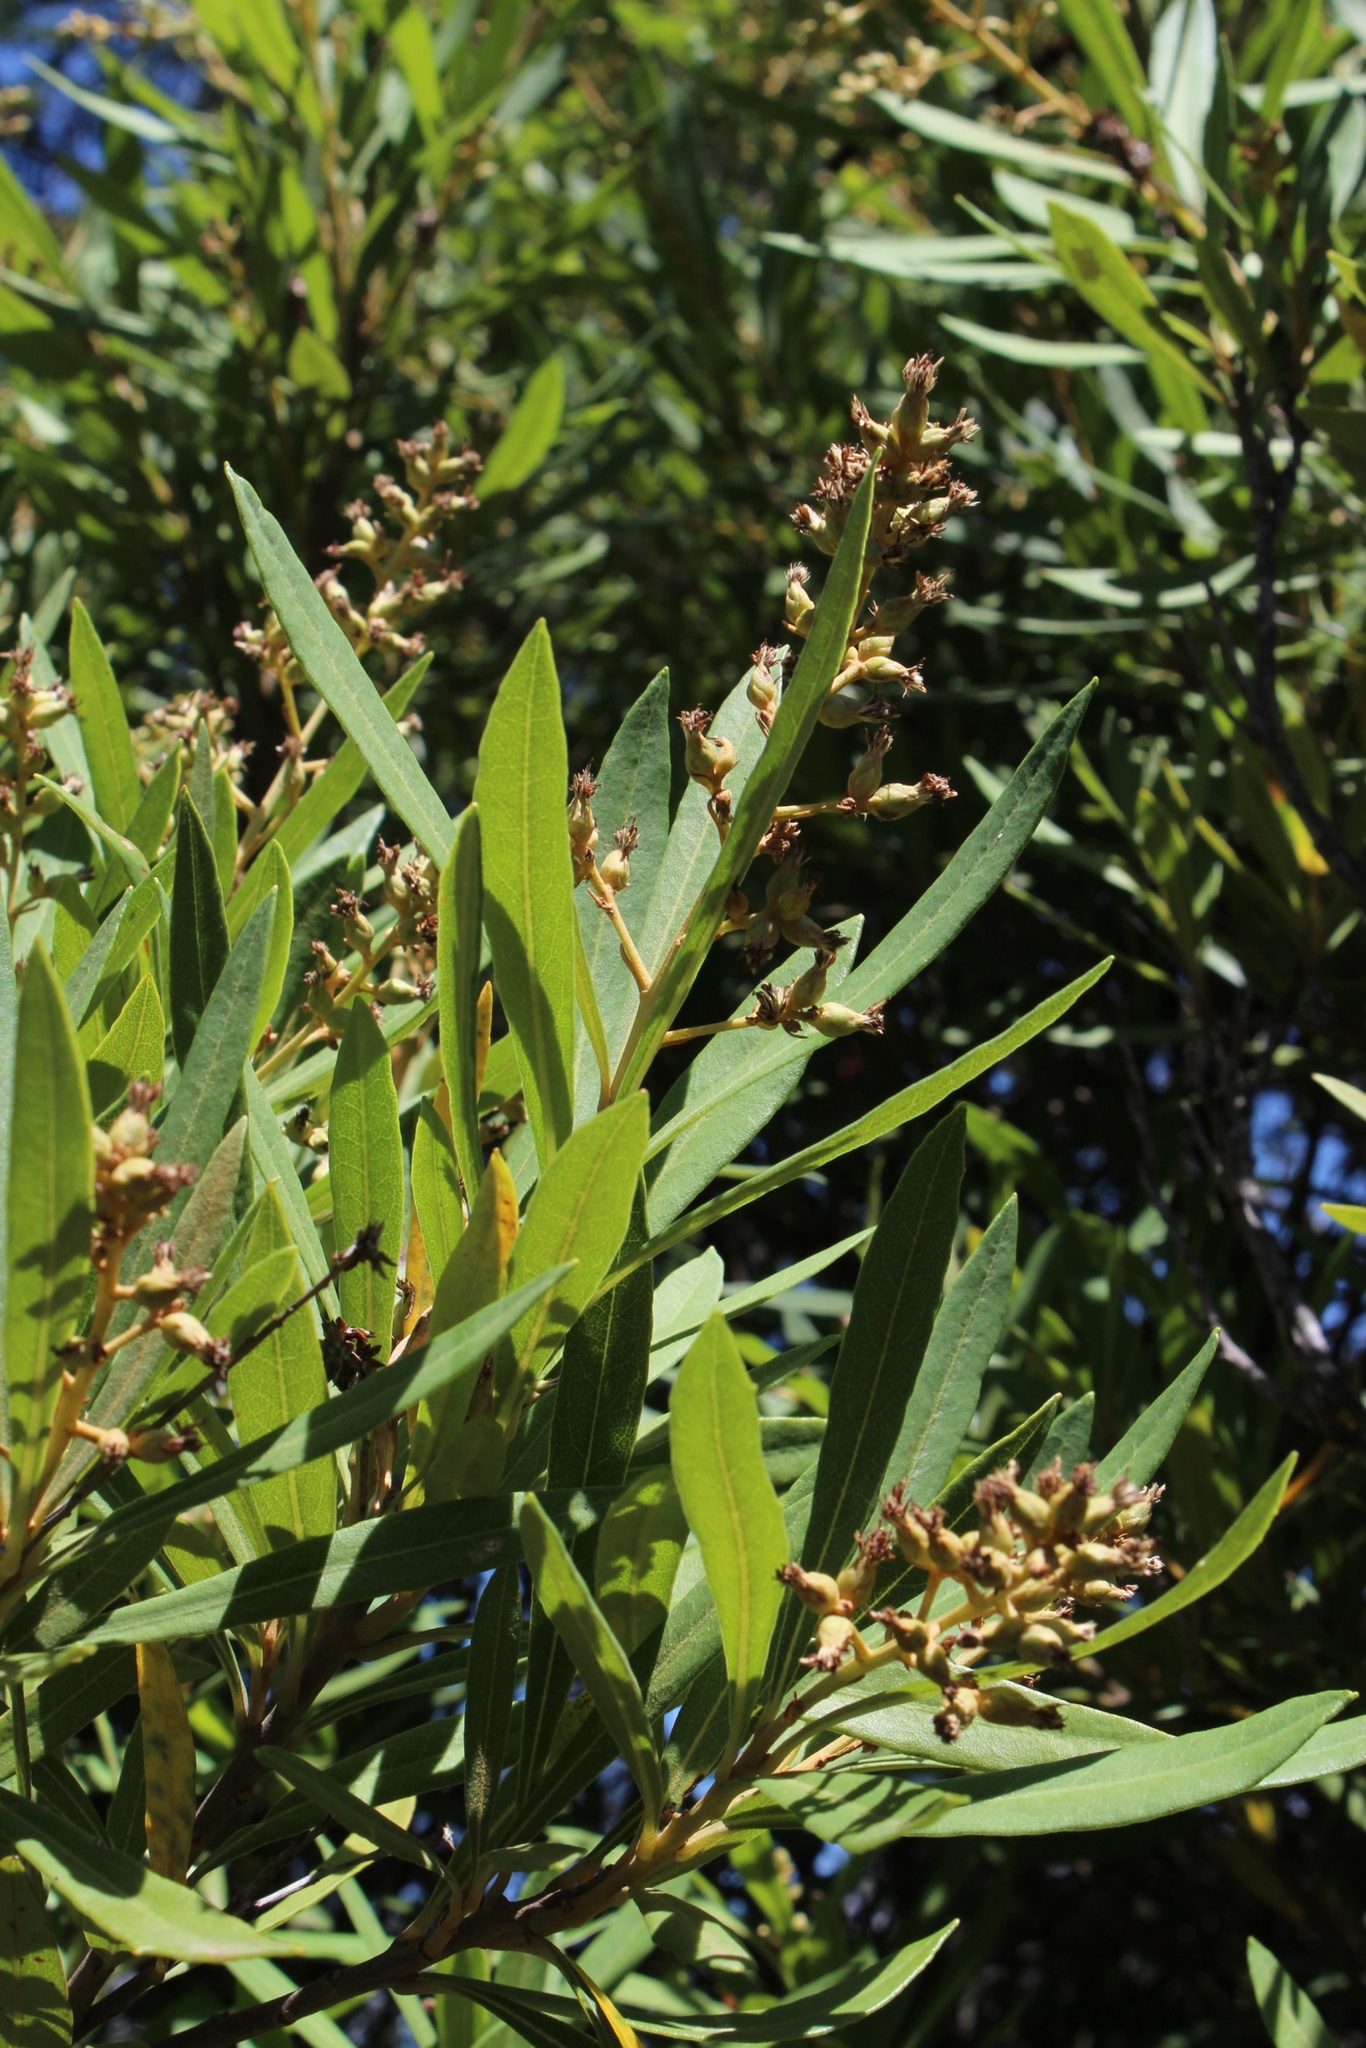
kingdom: Plantae
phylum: Tracheophyta
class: Magnoliopsida
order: Asterales
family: Asteraceae
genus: Brachylaena
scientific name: Brachylaena neriifolia
